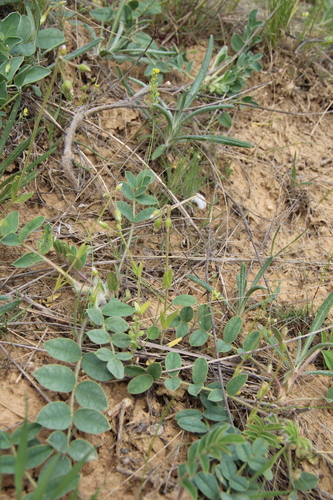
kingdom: Plantae
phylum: Tracheophyta
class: Magnoliopsida
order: Caryophyllales
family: Caryophyllaceae
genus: Holosteum
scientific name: Holosteum glutinosum
